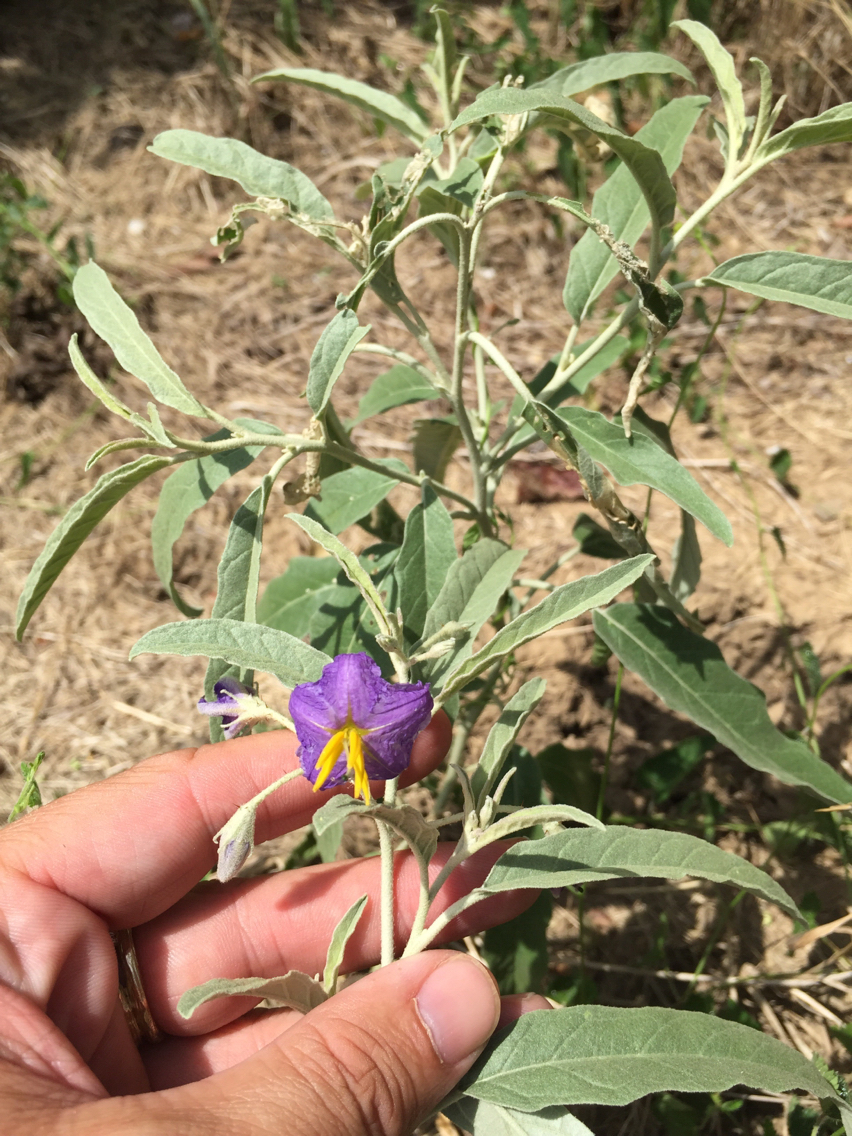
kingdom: Plantae
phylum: Tracheophyta
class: Magnoliopsida
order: Solanales
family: Solanaceae
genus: Solanum
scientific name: Solanum elaeagnifolium
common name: Silverleaf nightshade
